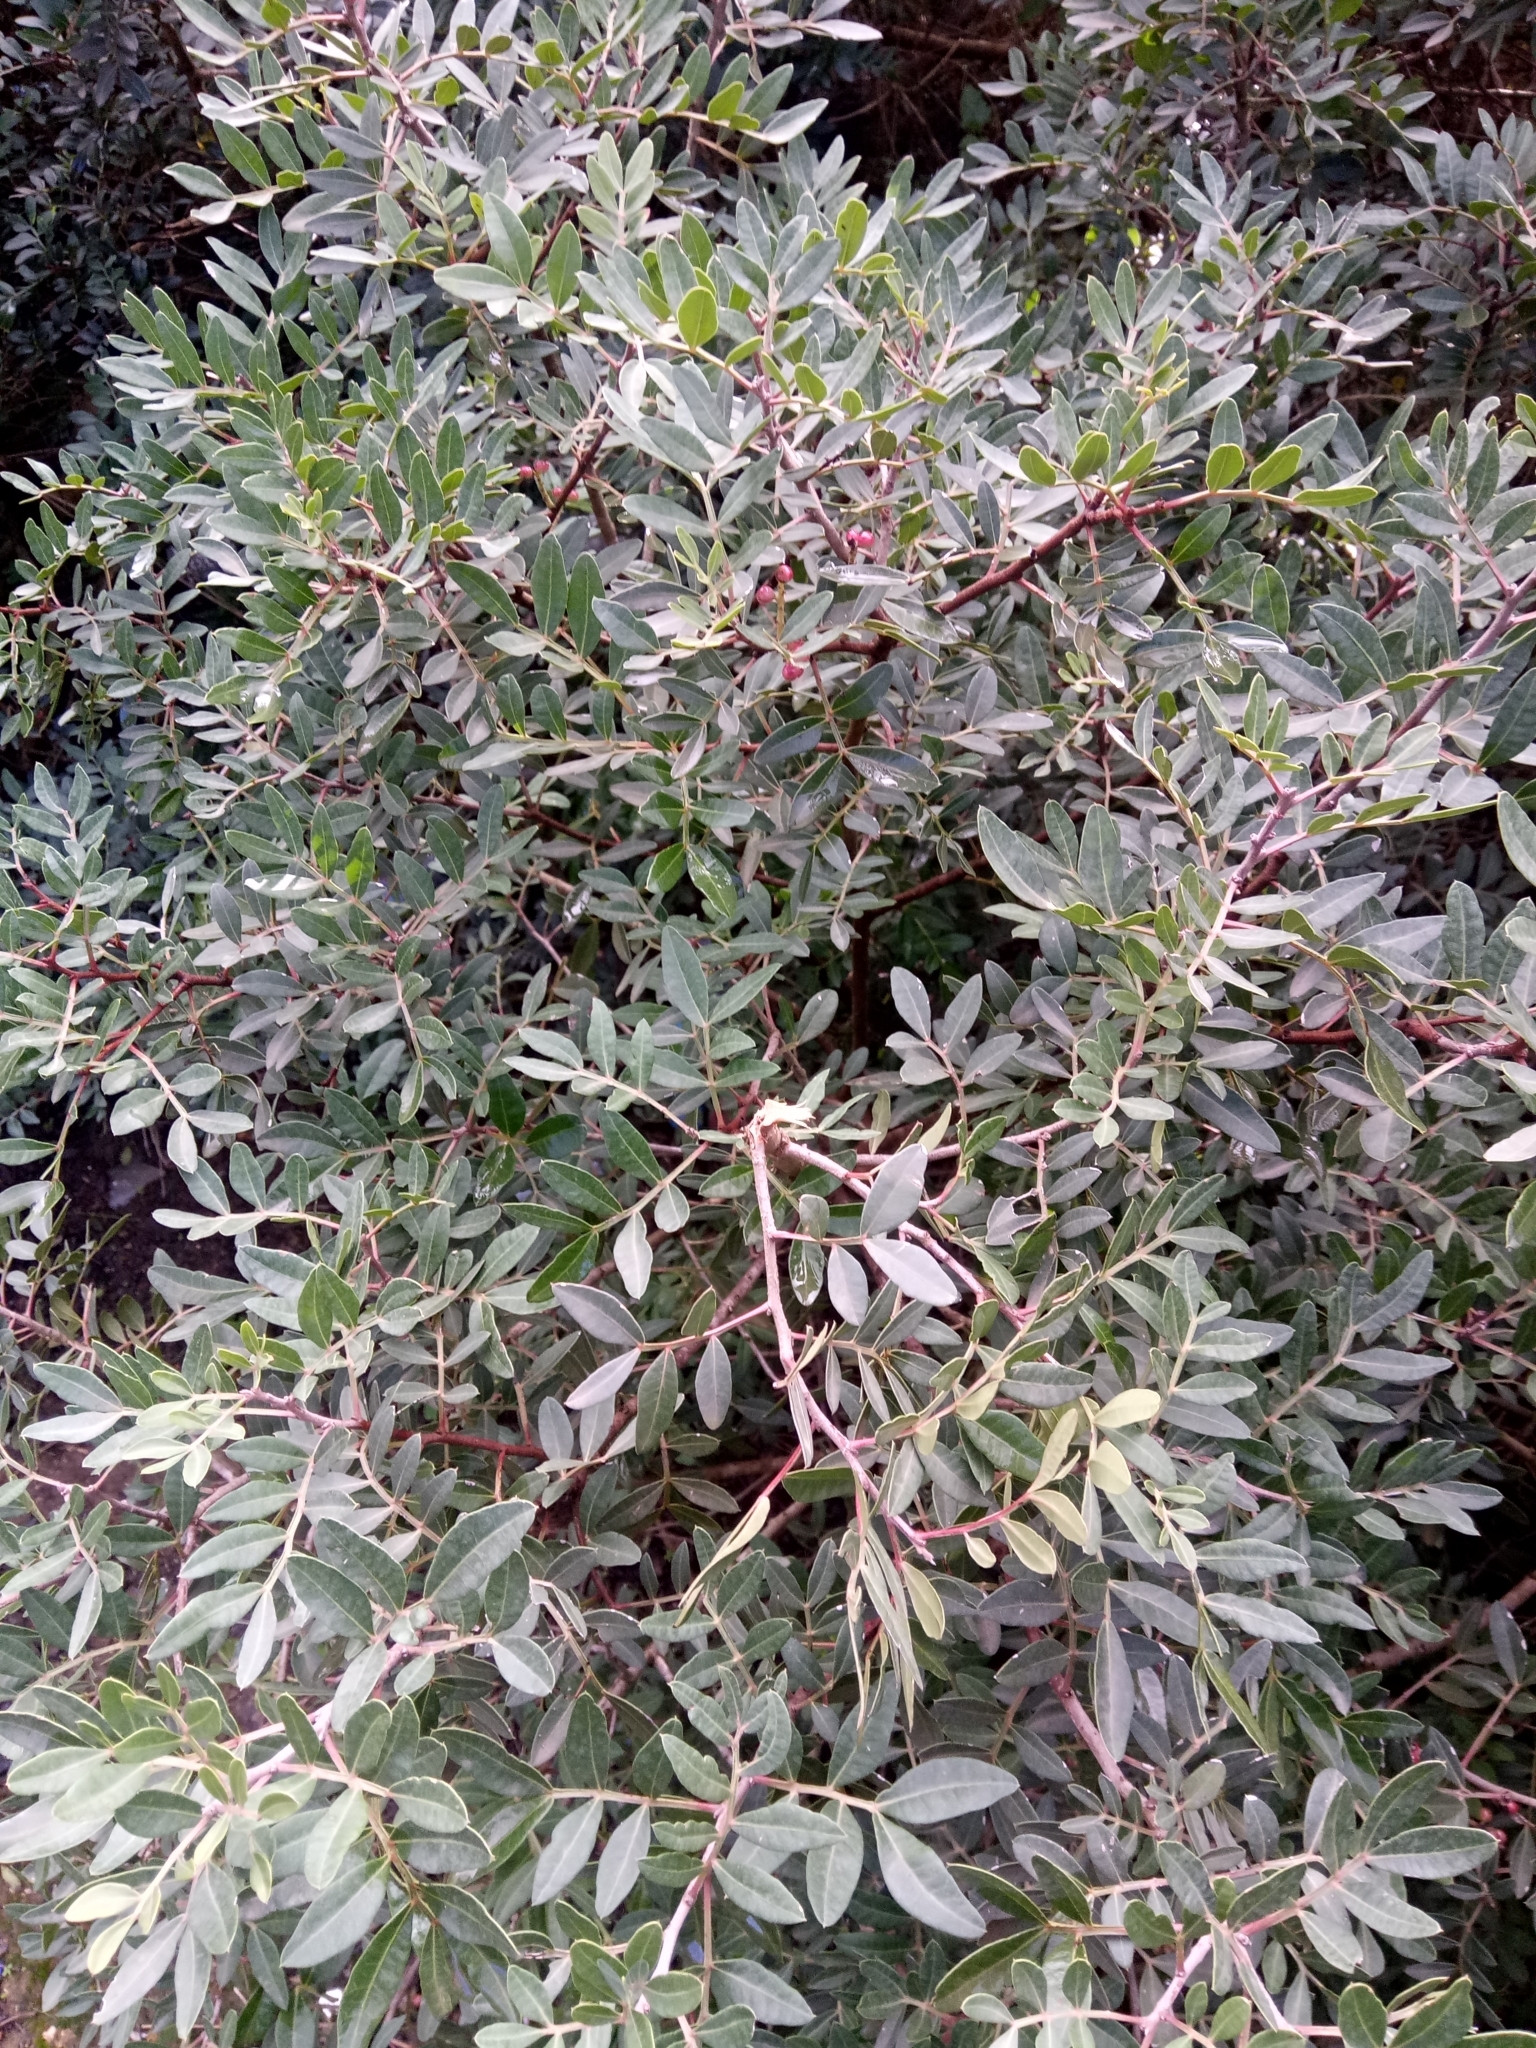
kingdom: Plantae
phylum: Tracheophyta
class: Magnoliopsida
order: Sapindales
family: Anacardiaceae
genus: Pistacia
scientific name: Pistacia lentiscus
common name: Lentisk
